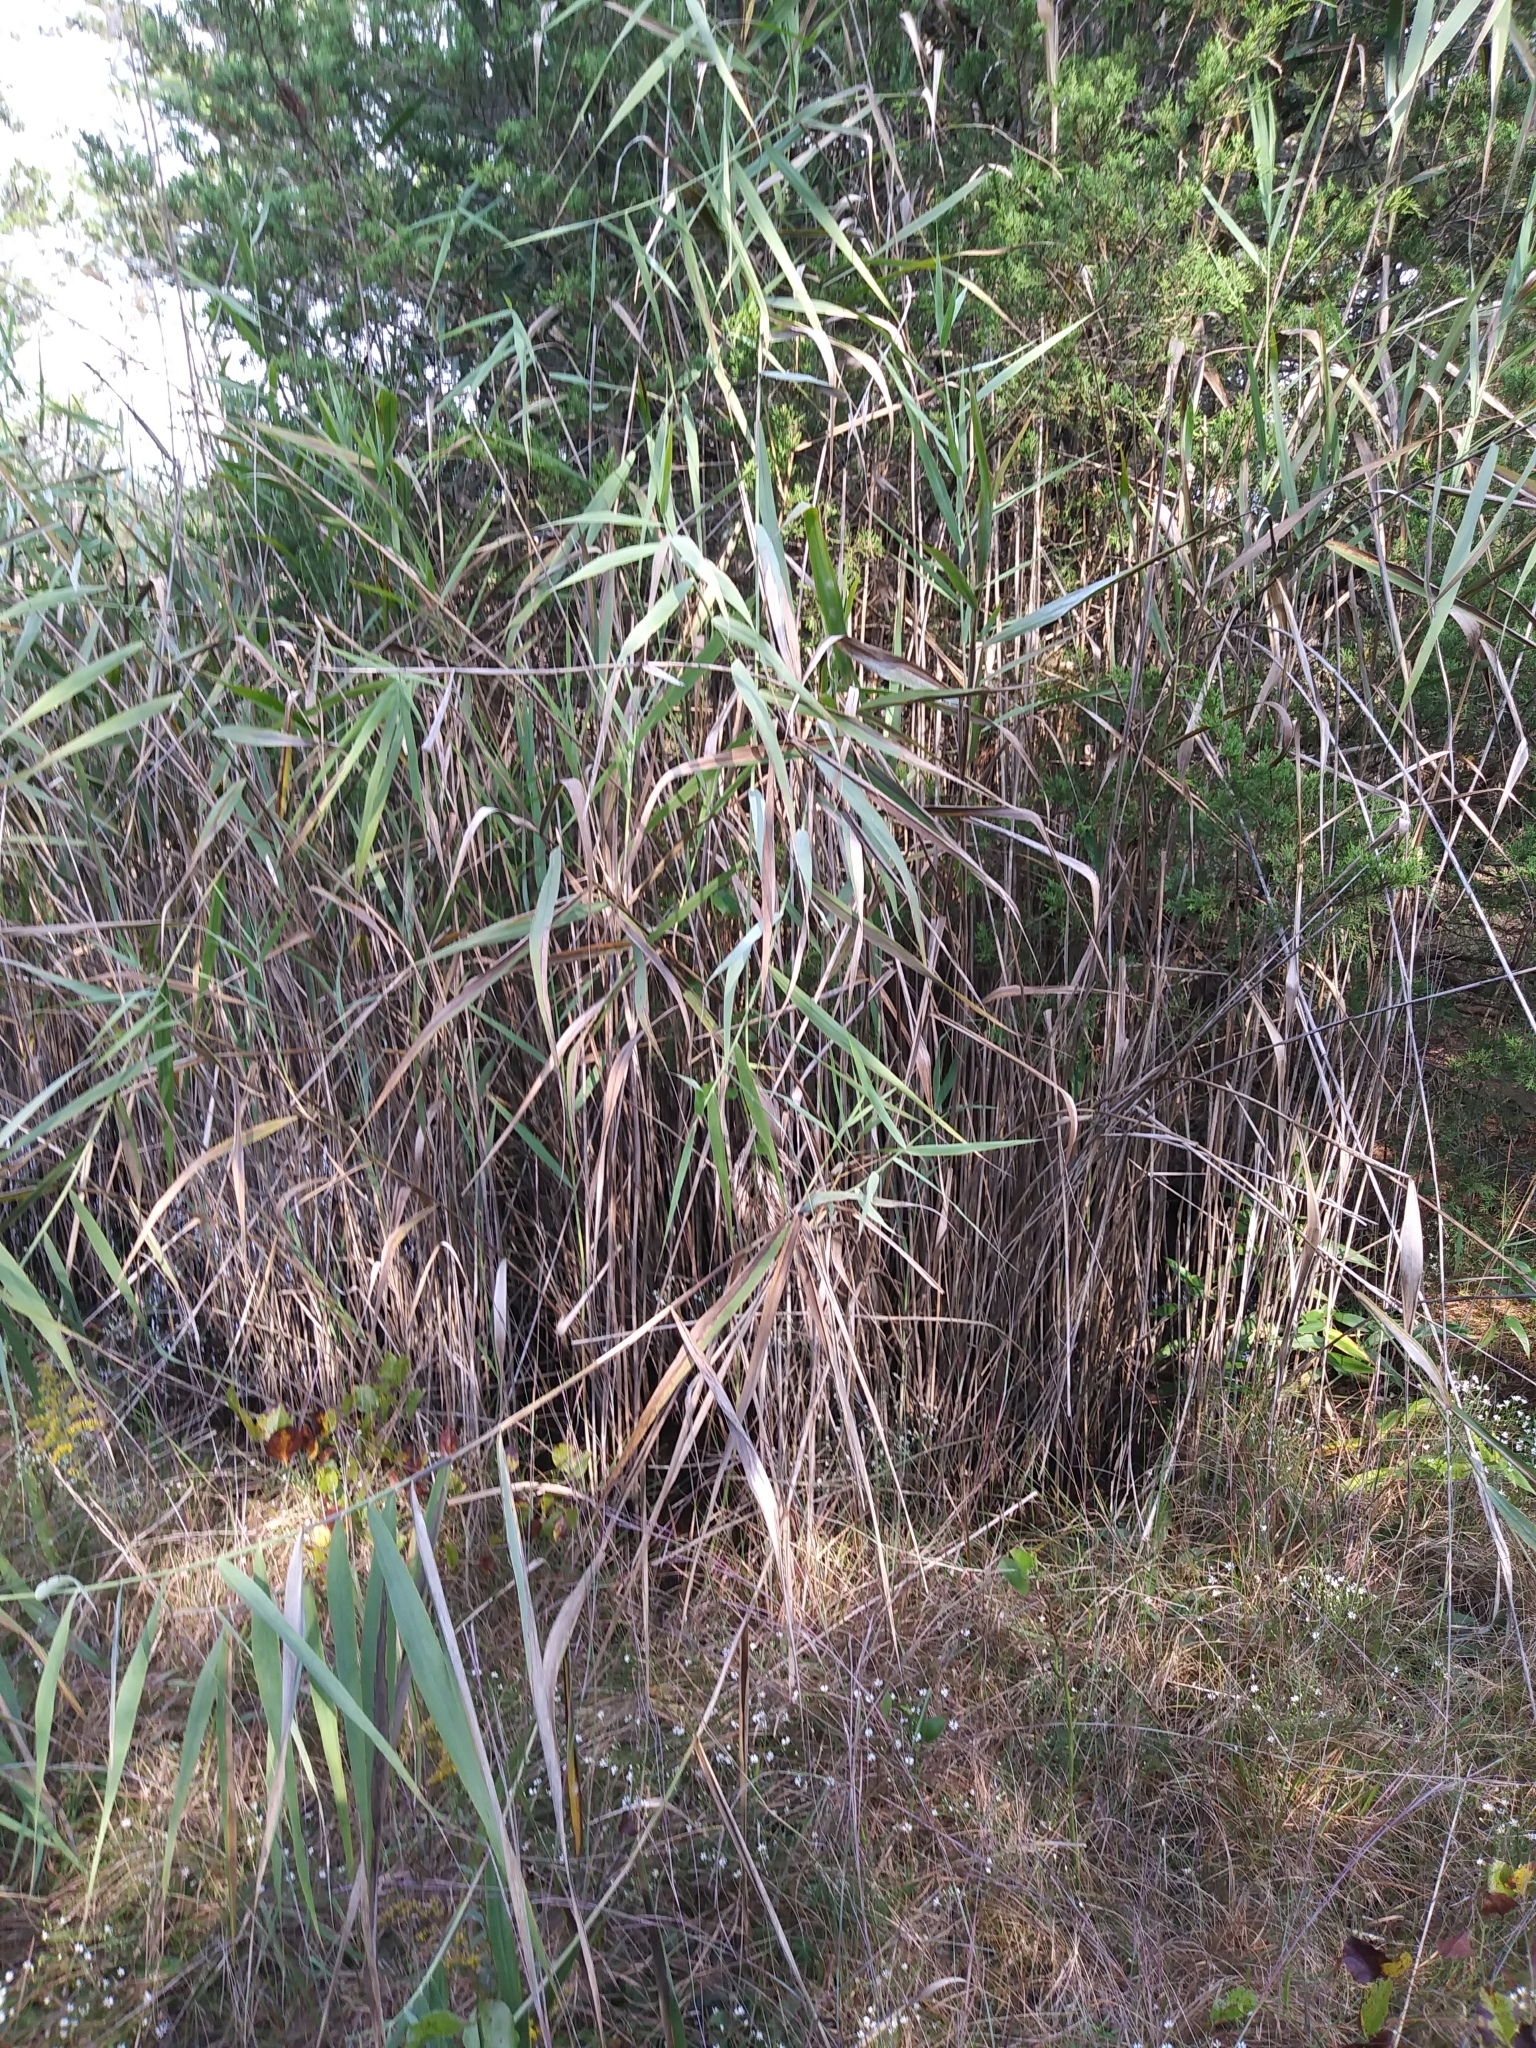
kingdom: Plantae
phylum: Tracheophyta
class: Liliopsida
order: Poales
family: Poaceae
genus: Phragmites
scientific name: Phragmites australis
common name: Common reed
